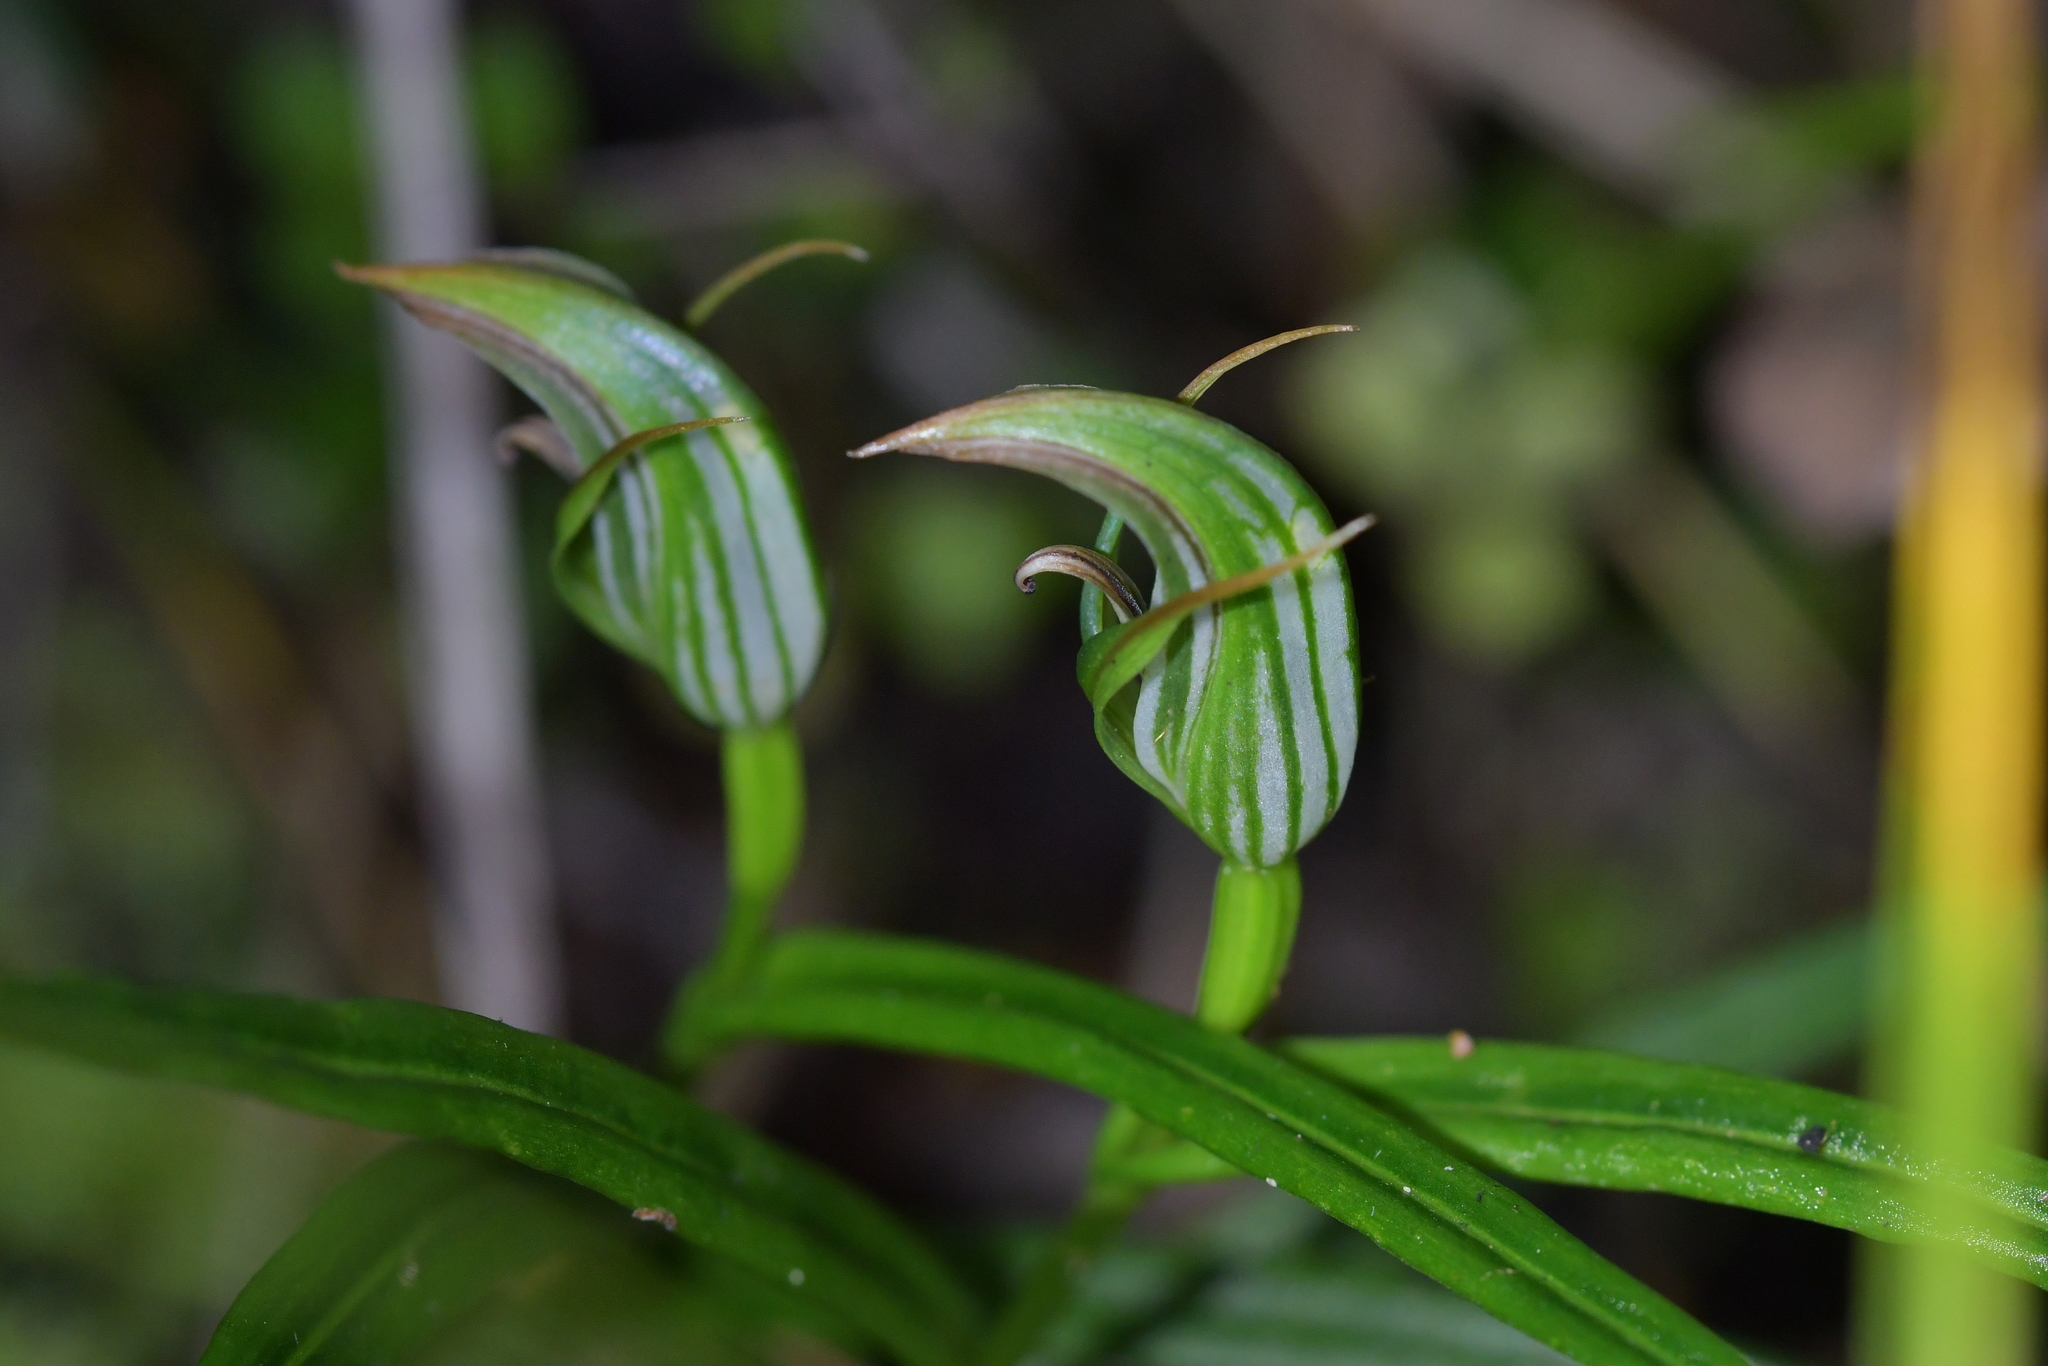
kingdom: Plantae
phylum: Tracheophyta
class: Liliopsida
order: Asparagales
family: Orchidaceae
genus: Pterostylis
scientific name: Pterostylis irsoniana
